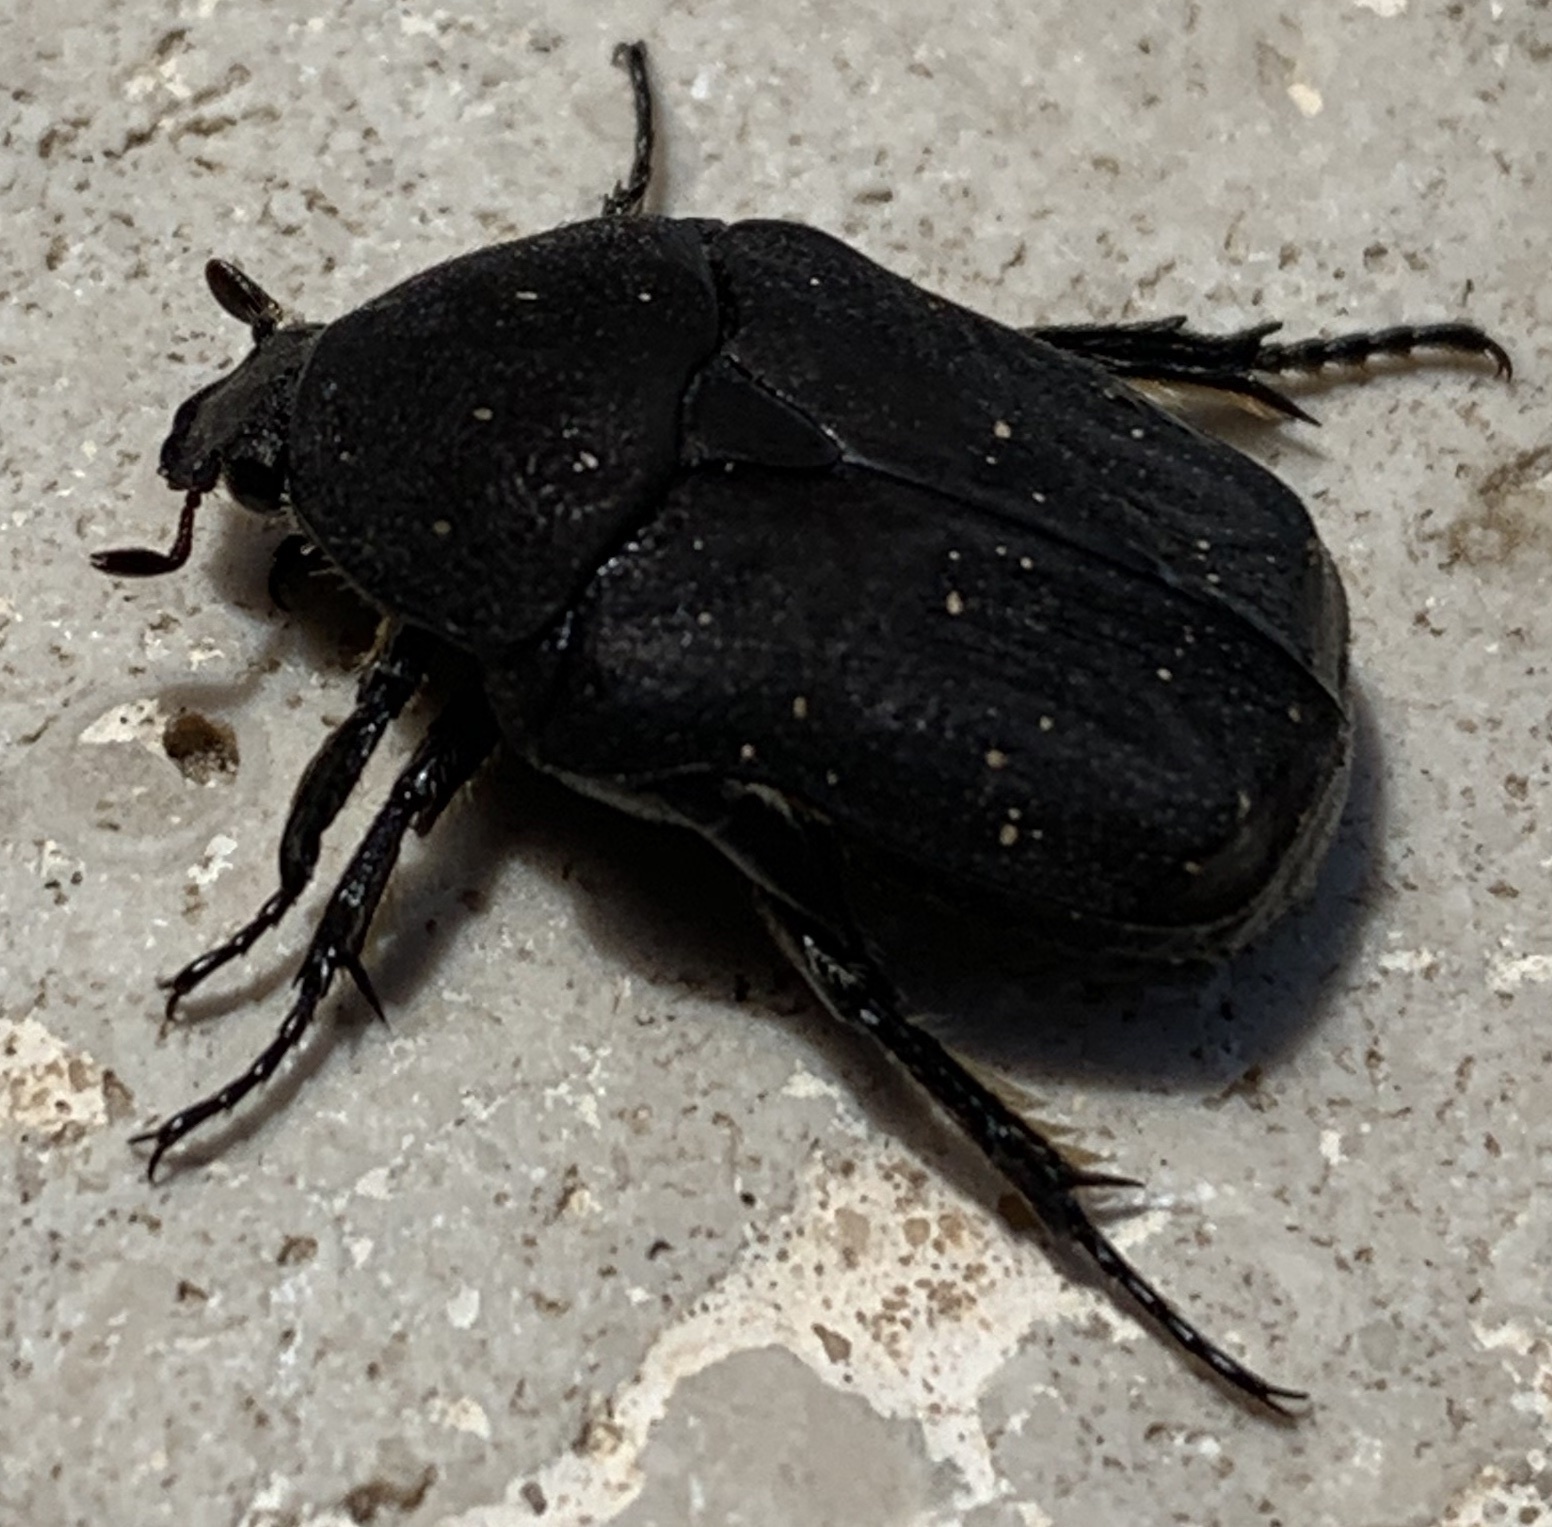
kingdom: Animalia
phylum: Arthropoda
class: Insecta
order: Coleoptera
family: Scarabaeidae
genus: Protaetia
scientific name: Protaetia morio
